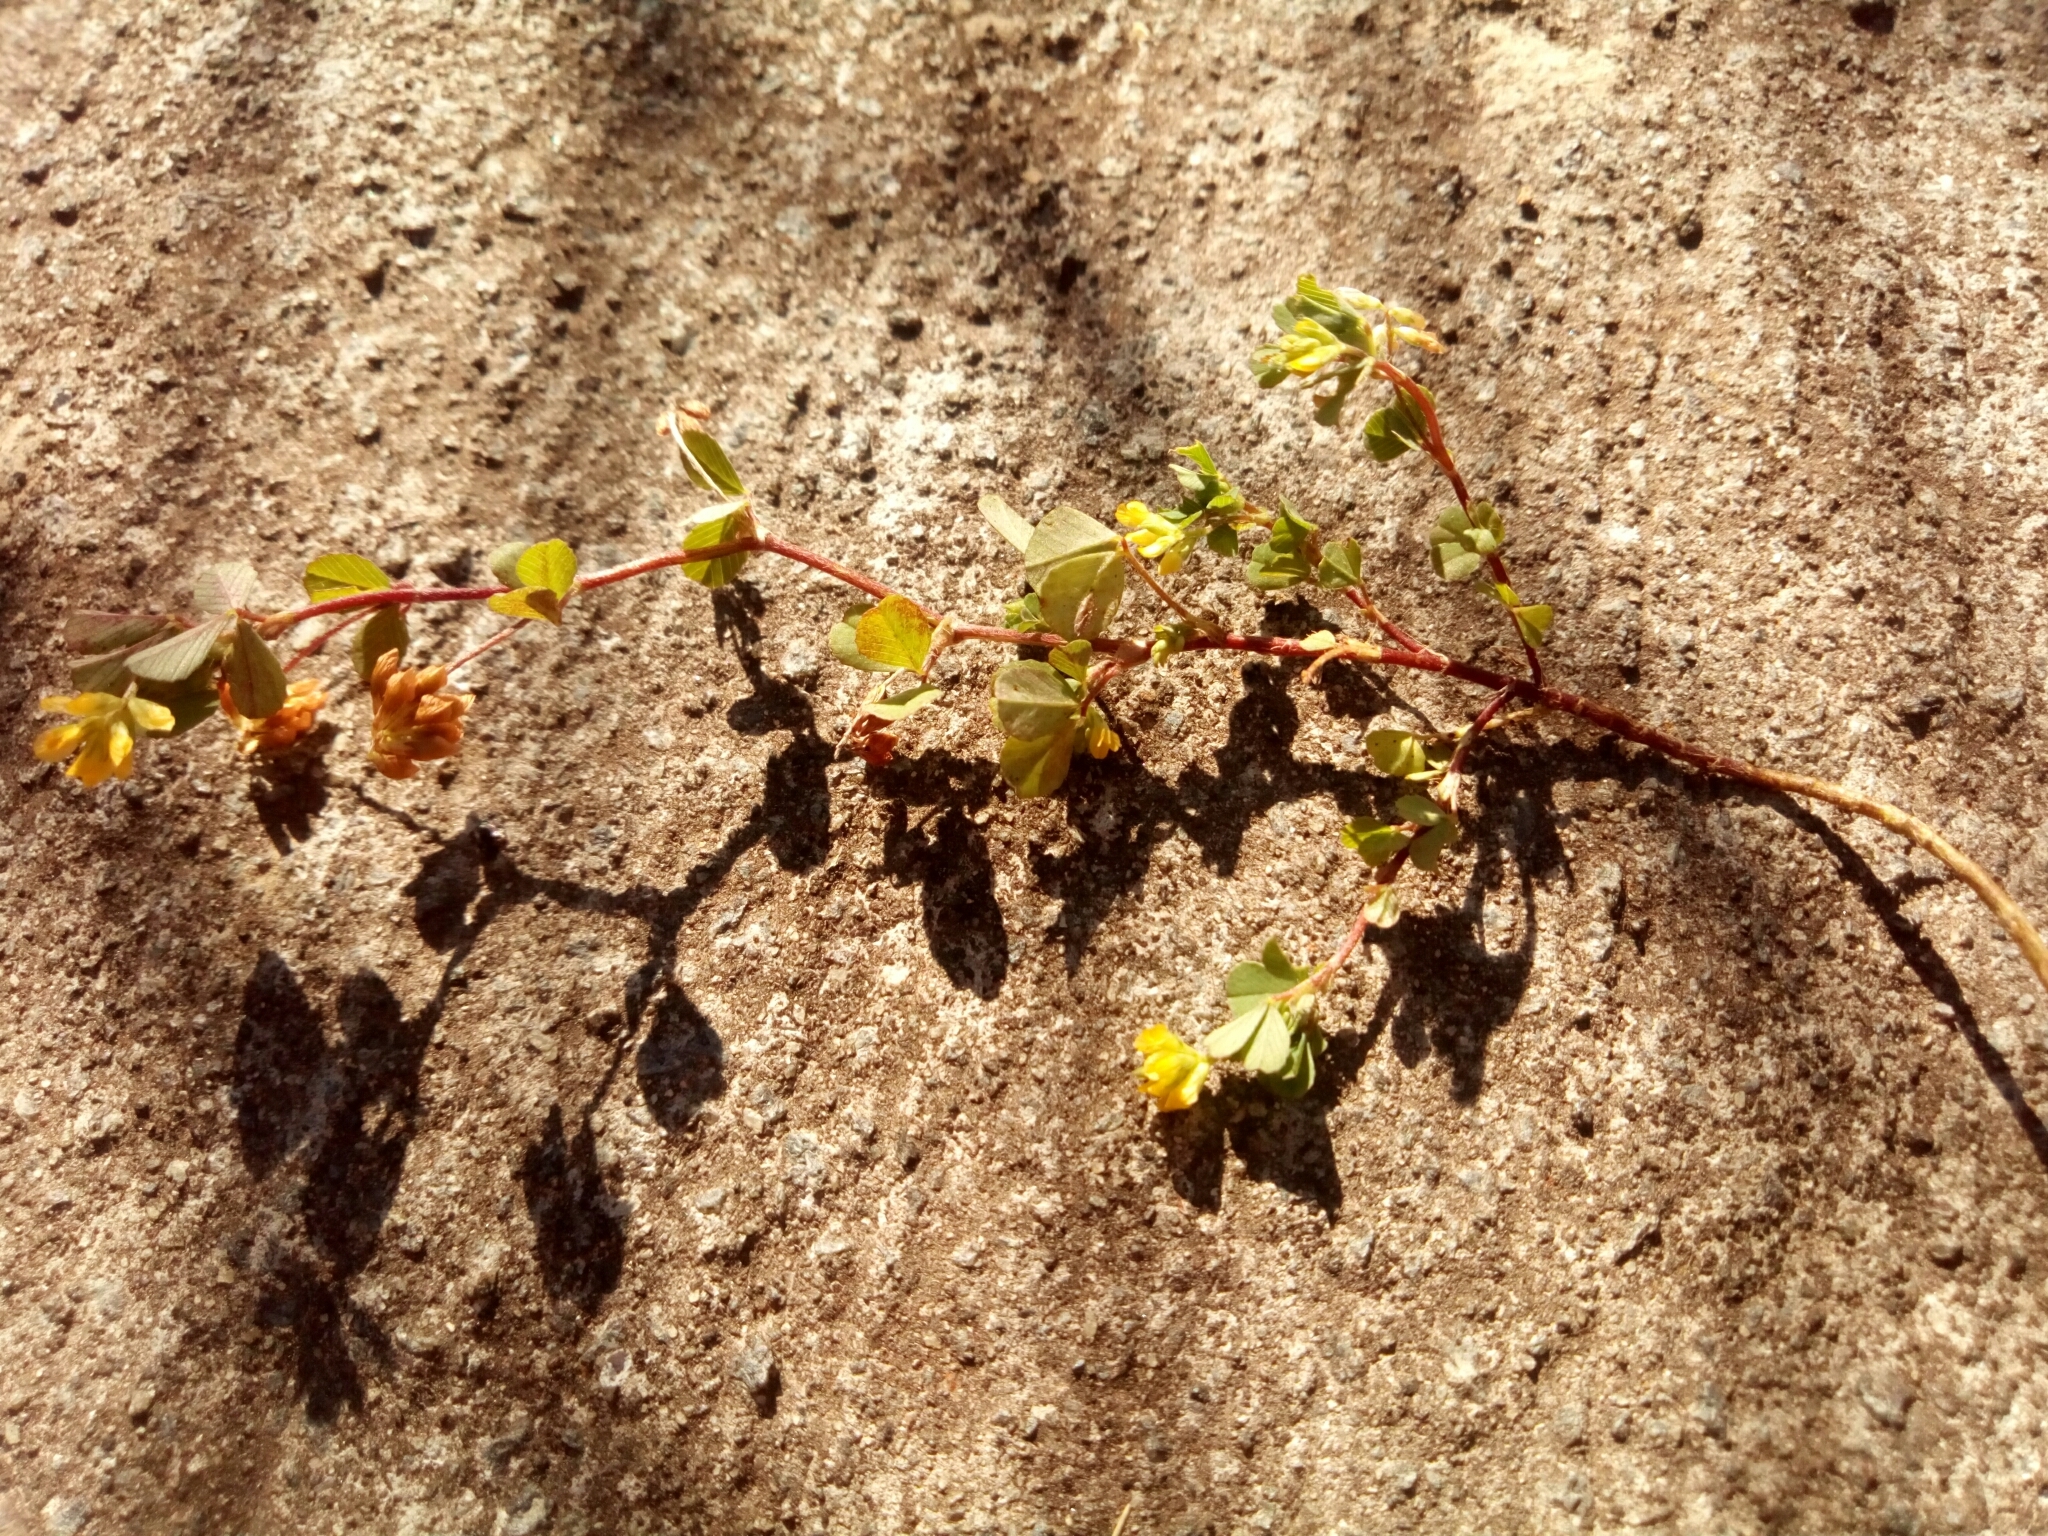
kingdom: Plantae
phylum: Tracheophyta
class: Magnoliopsida
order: Fabales
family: Fabaceae
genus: Trifolium
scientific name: Trifolium dubium
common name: Suckling clover
